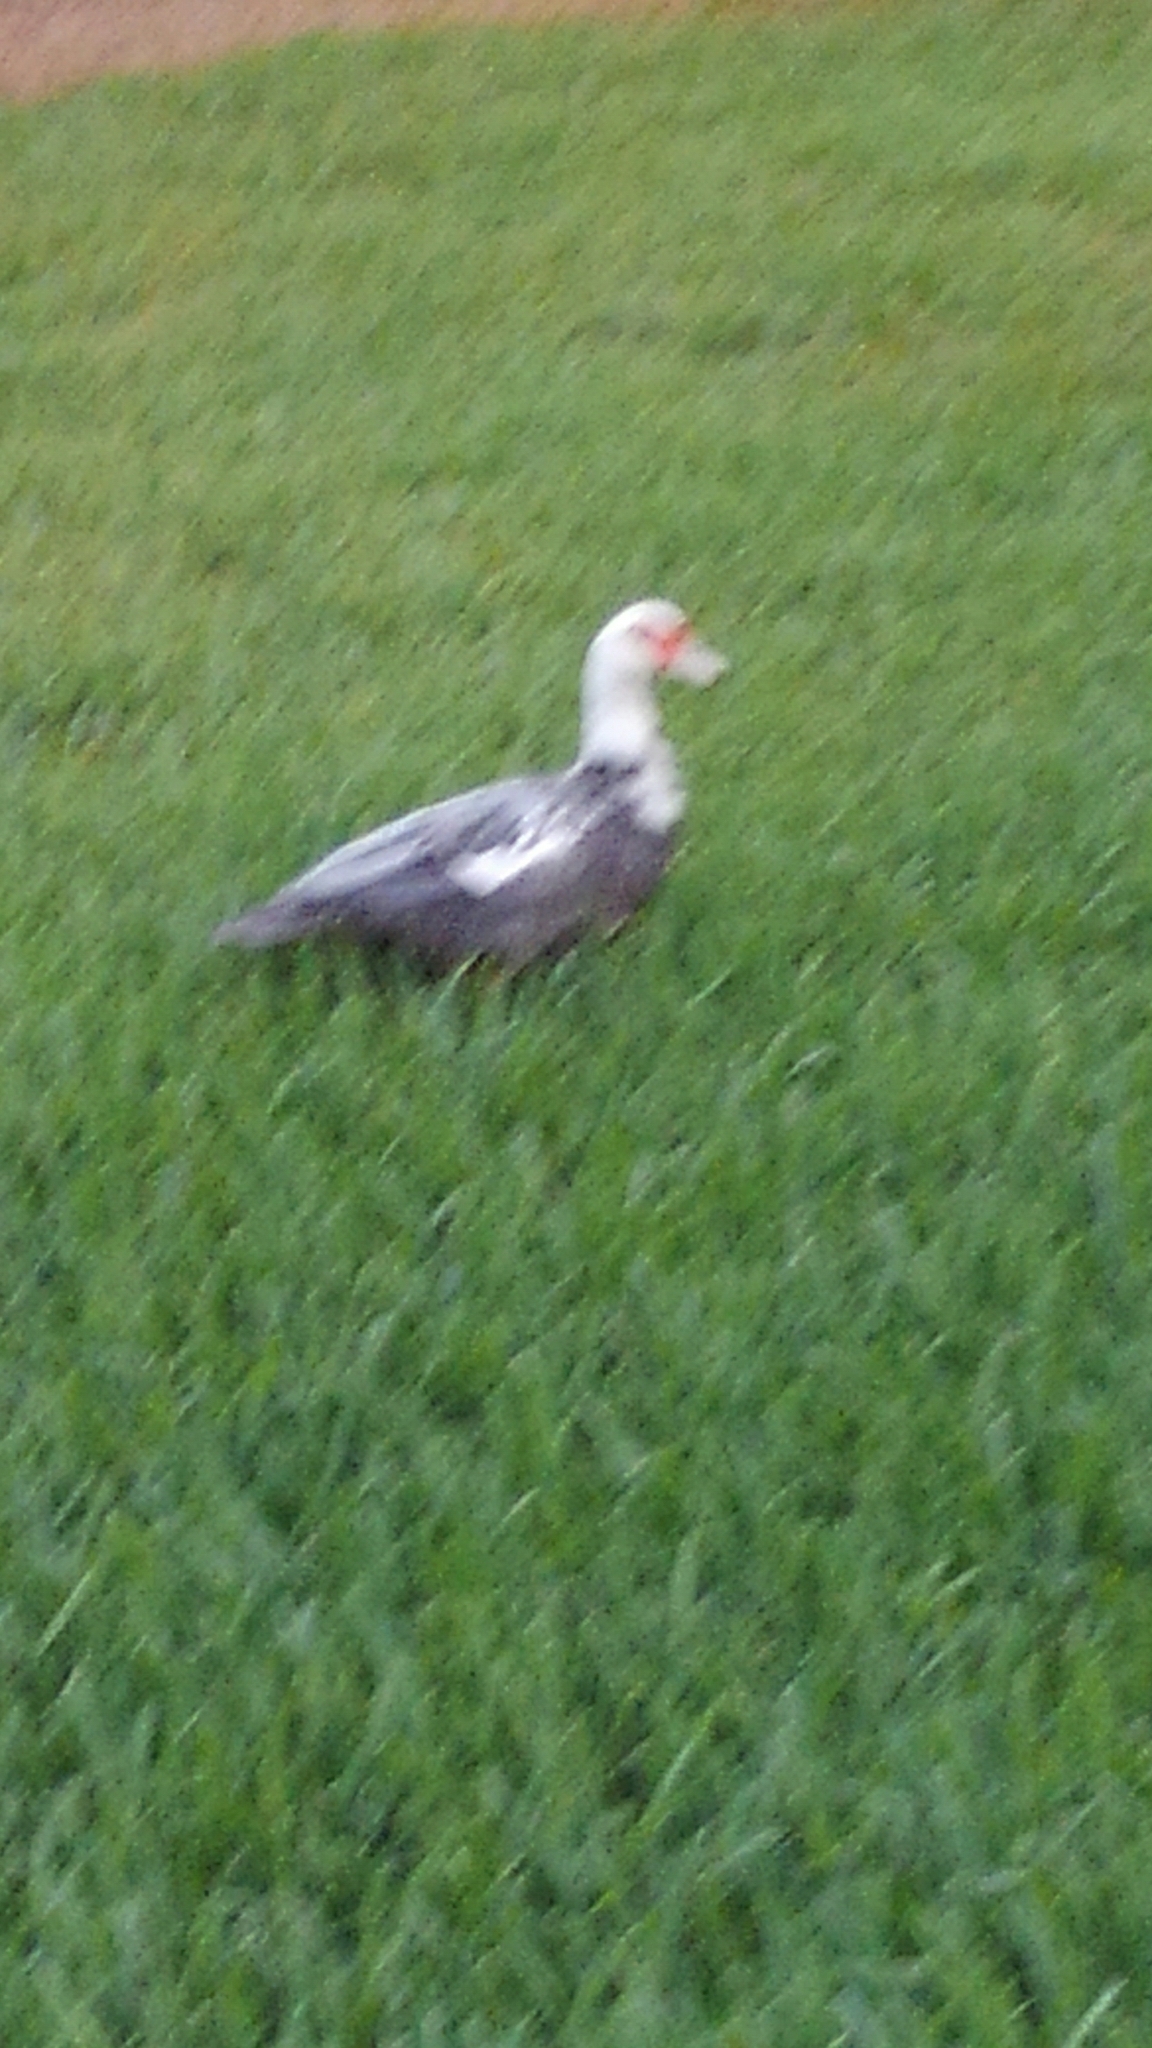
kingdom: Animalia
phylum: Chordata
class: Aves
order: Anseriformes
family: Anatidae
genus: Cairina
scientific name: Cairina moschata
